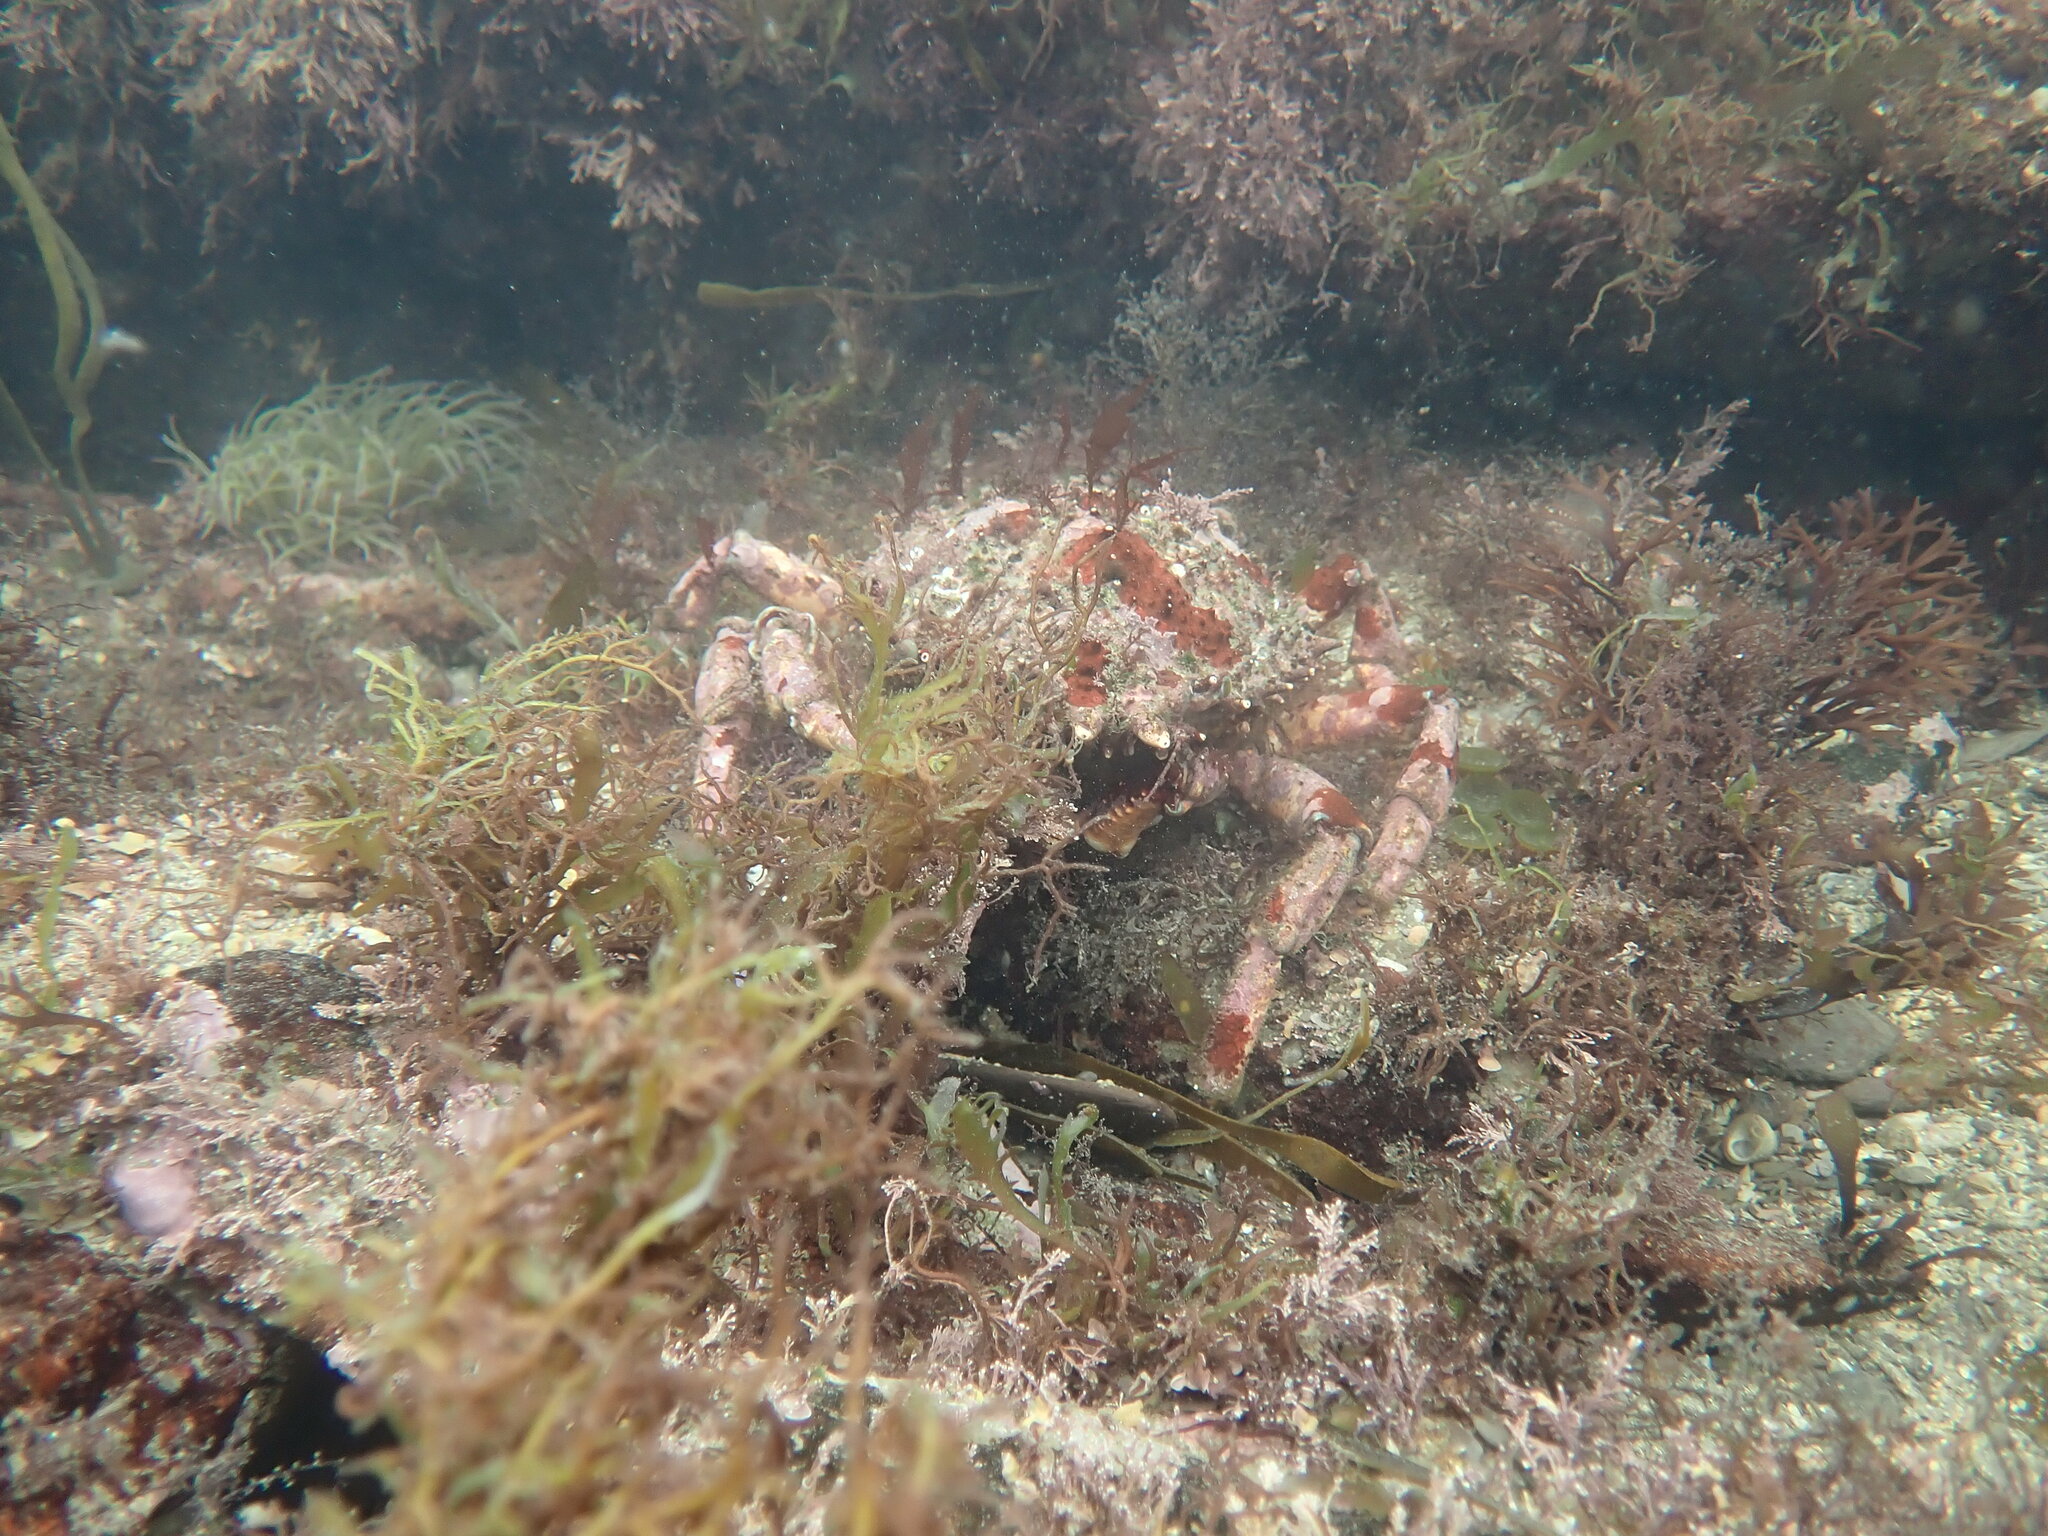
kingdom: Animalia
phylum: Arthropoda
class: Malacostraca
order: Decapoda
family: Majidae
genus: Maja
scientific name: Maja brachydactyla
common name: Common spider crab
